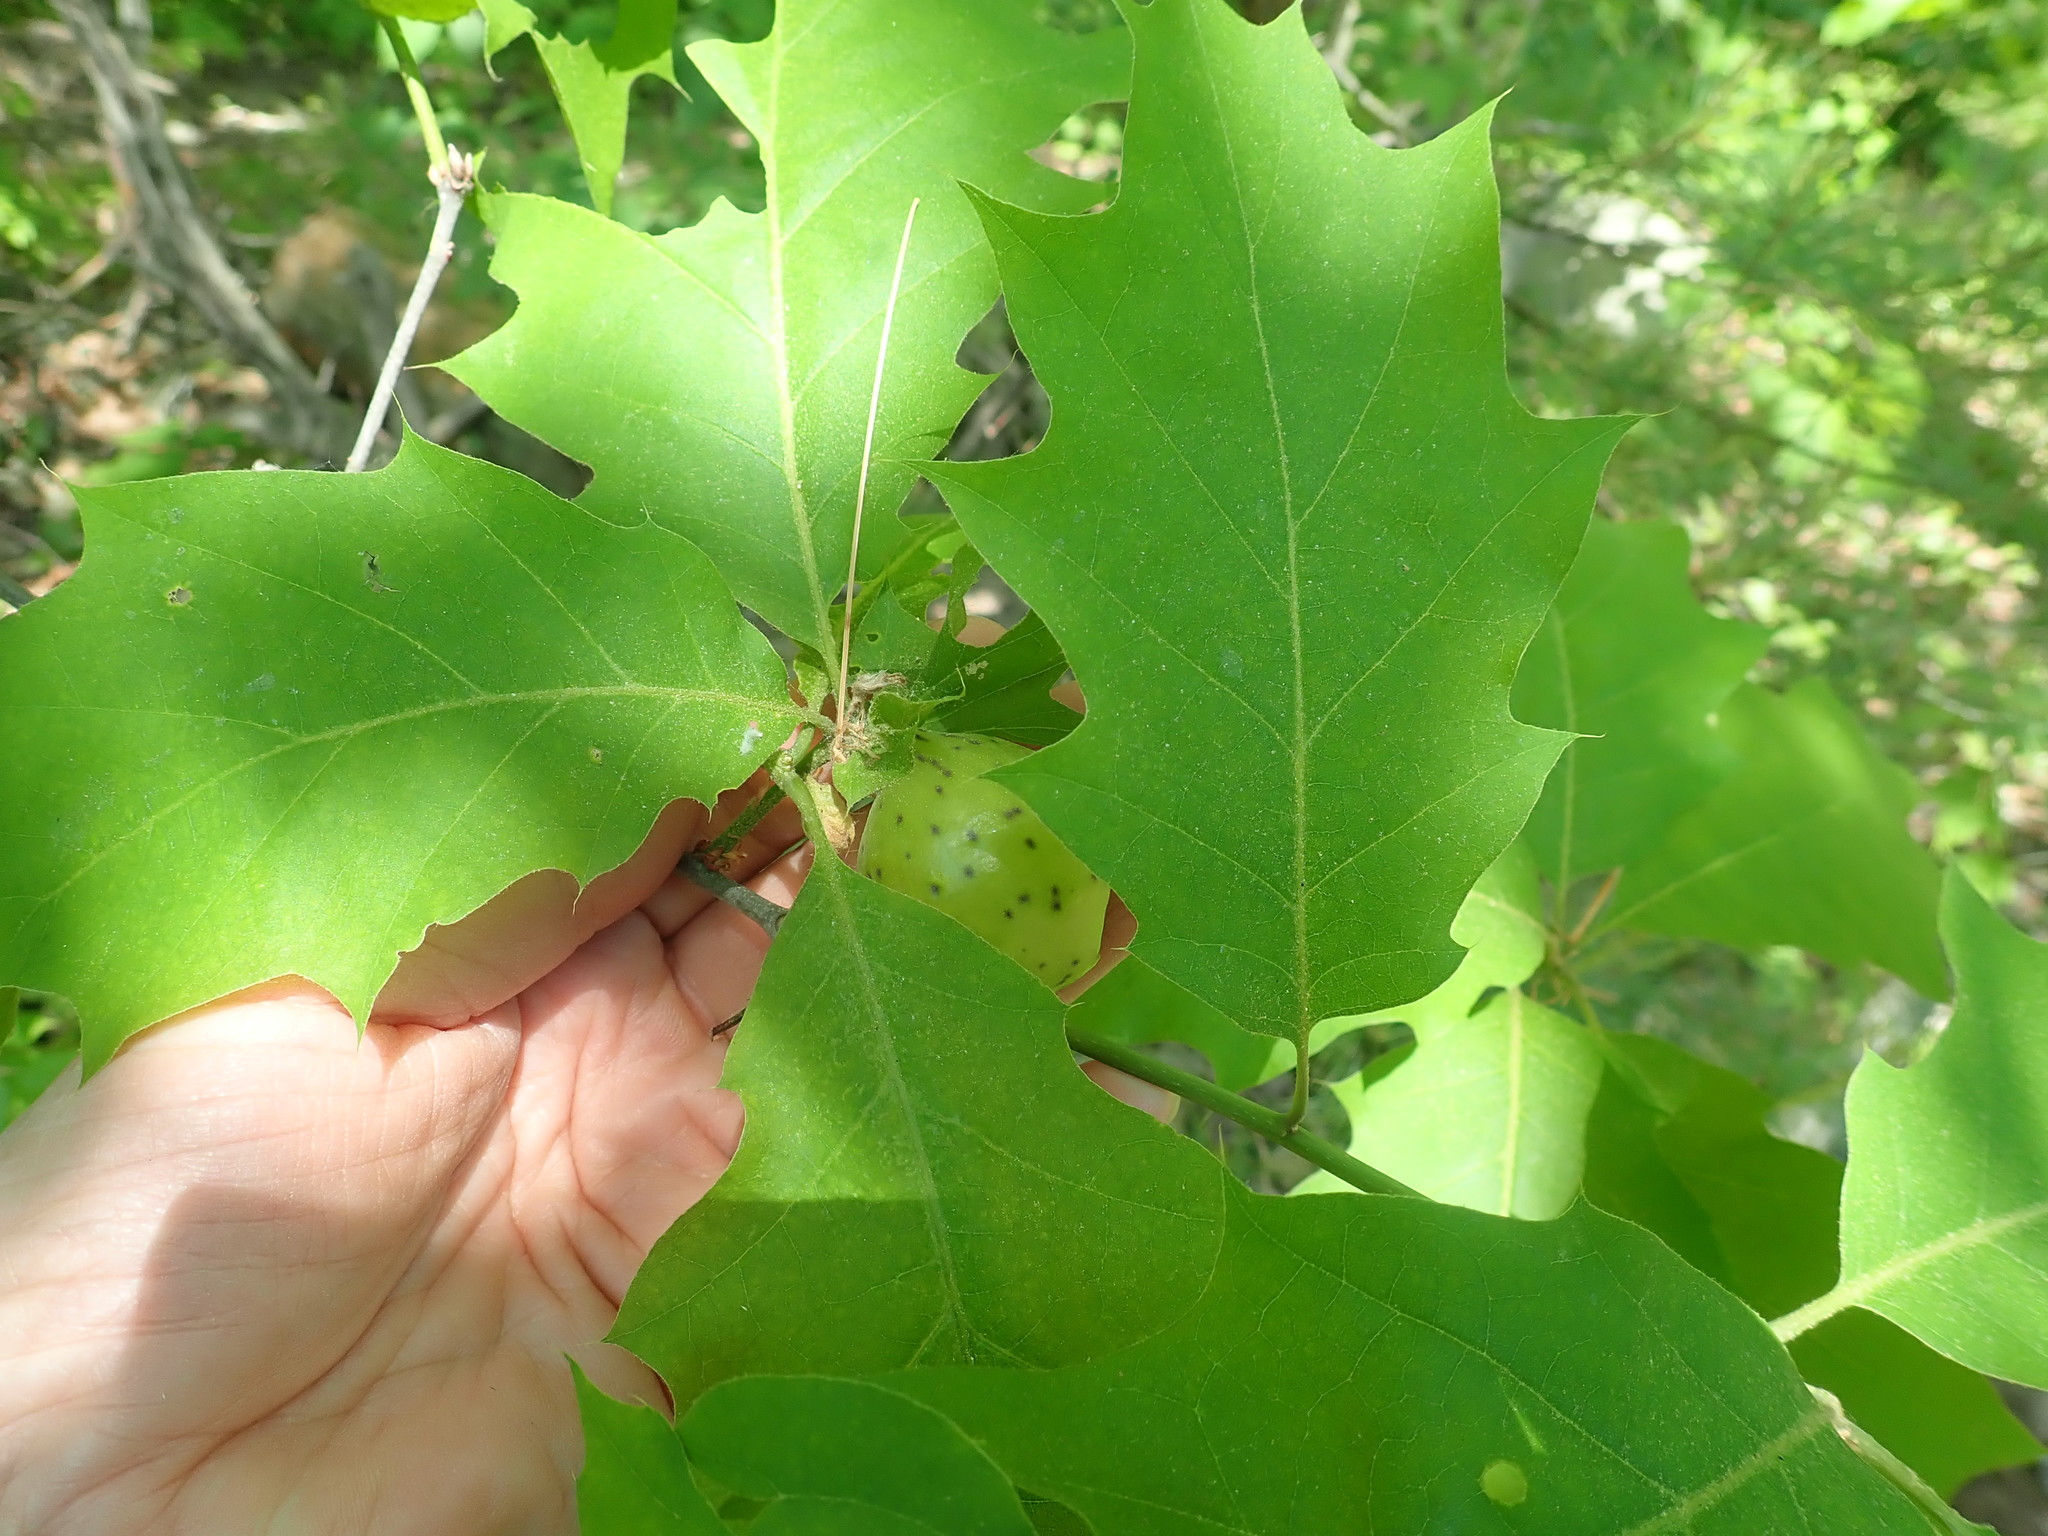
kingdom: Animalia
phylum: Arthropoda
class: Insecta
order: Hymenoptera
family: Cynipidae
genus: Amphibolips
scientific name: Amphibolips
